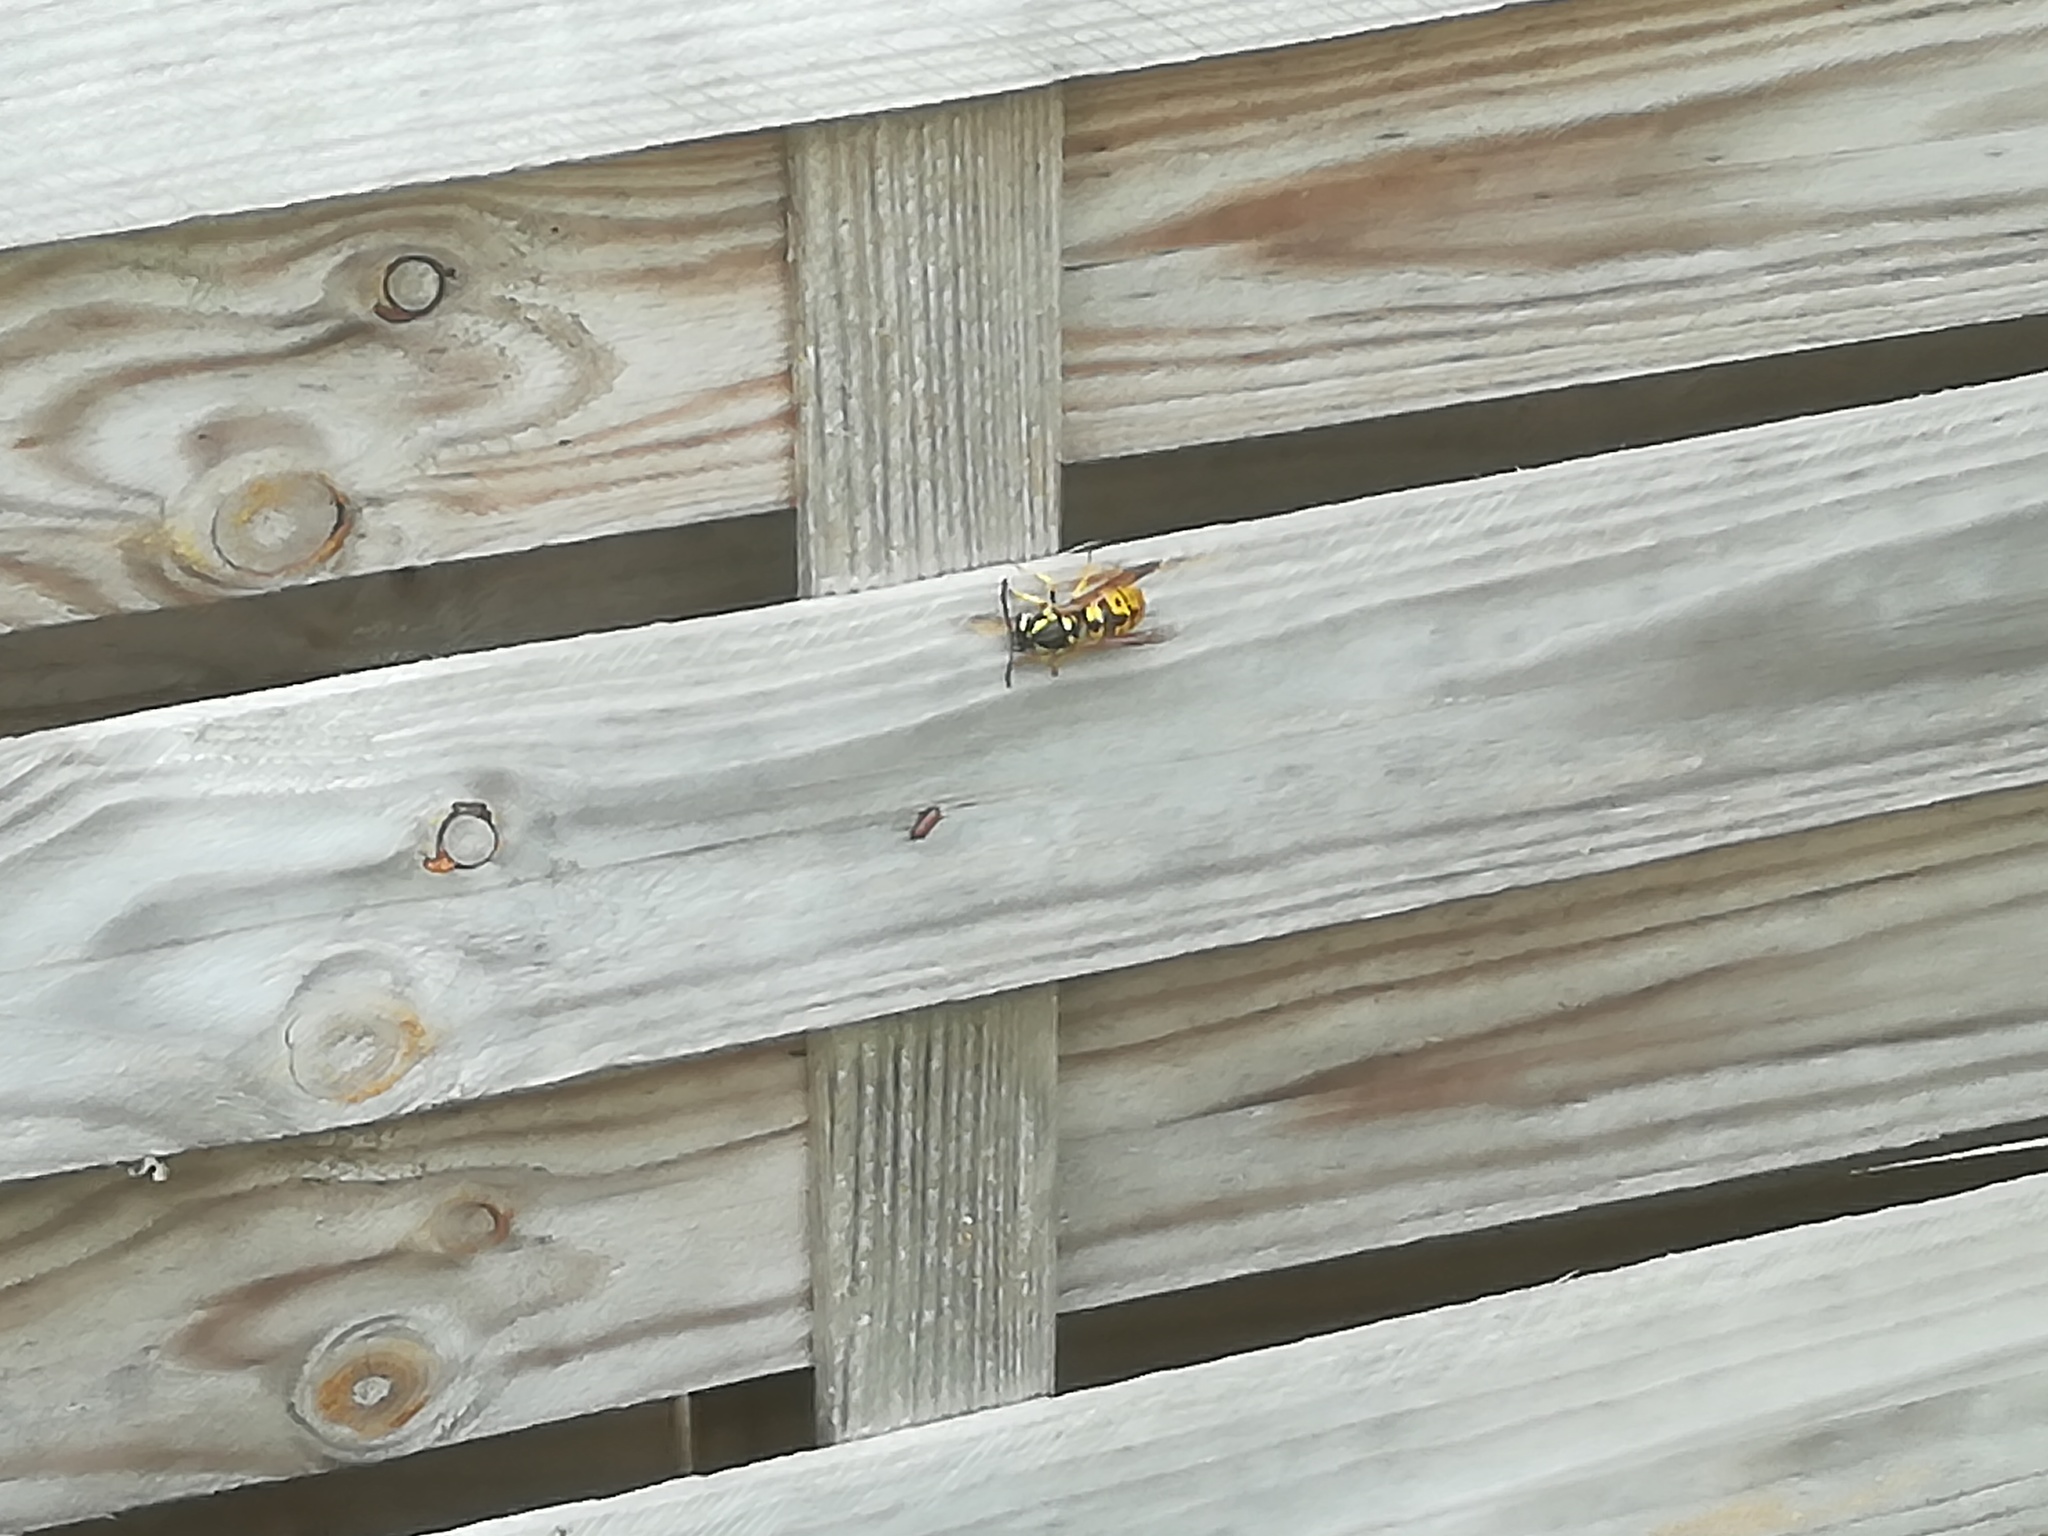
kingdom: Animalia
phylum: Arthropoda
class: Insecta
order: Hymenoptera
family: Vespidae
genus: Vespula
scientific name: Vespula germanica
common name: German wasp
